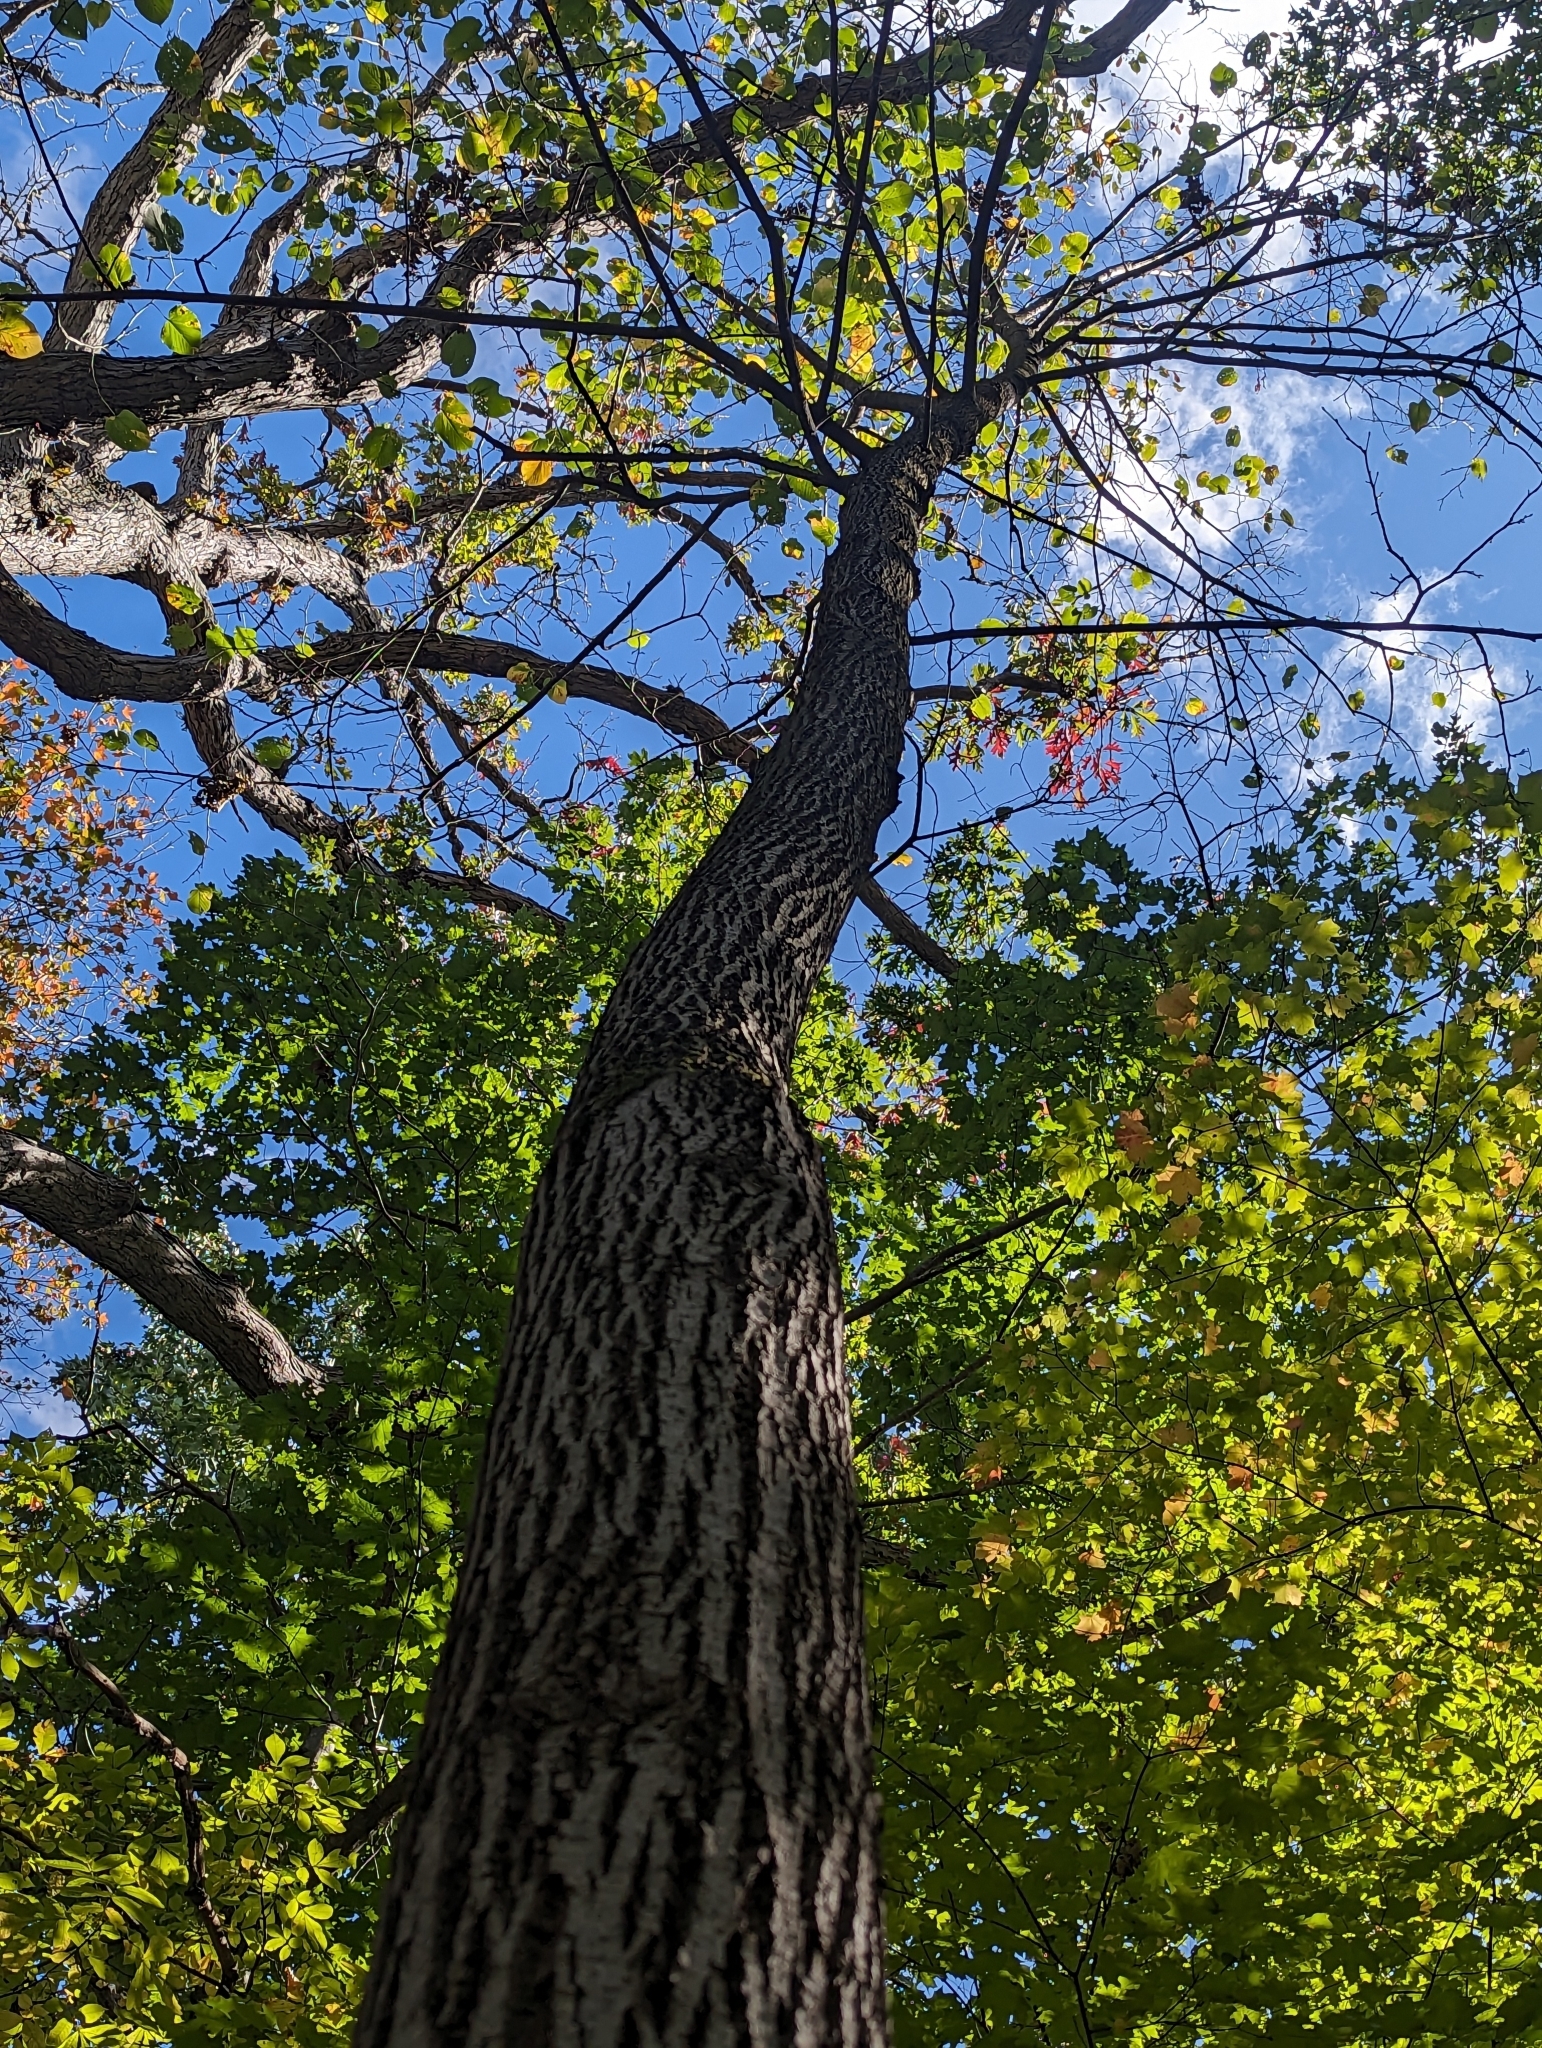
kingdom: Plantae
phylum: Tracheophyta
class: Magnoliopsida
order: Malvales
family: Malvaceae
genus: Tilia
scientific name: Tilia americana
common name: Basswood
